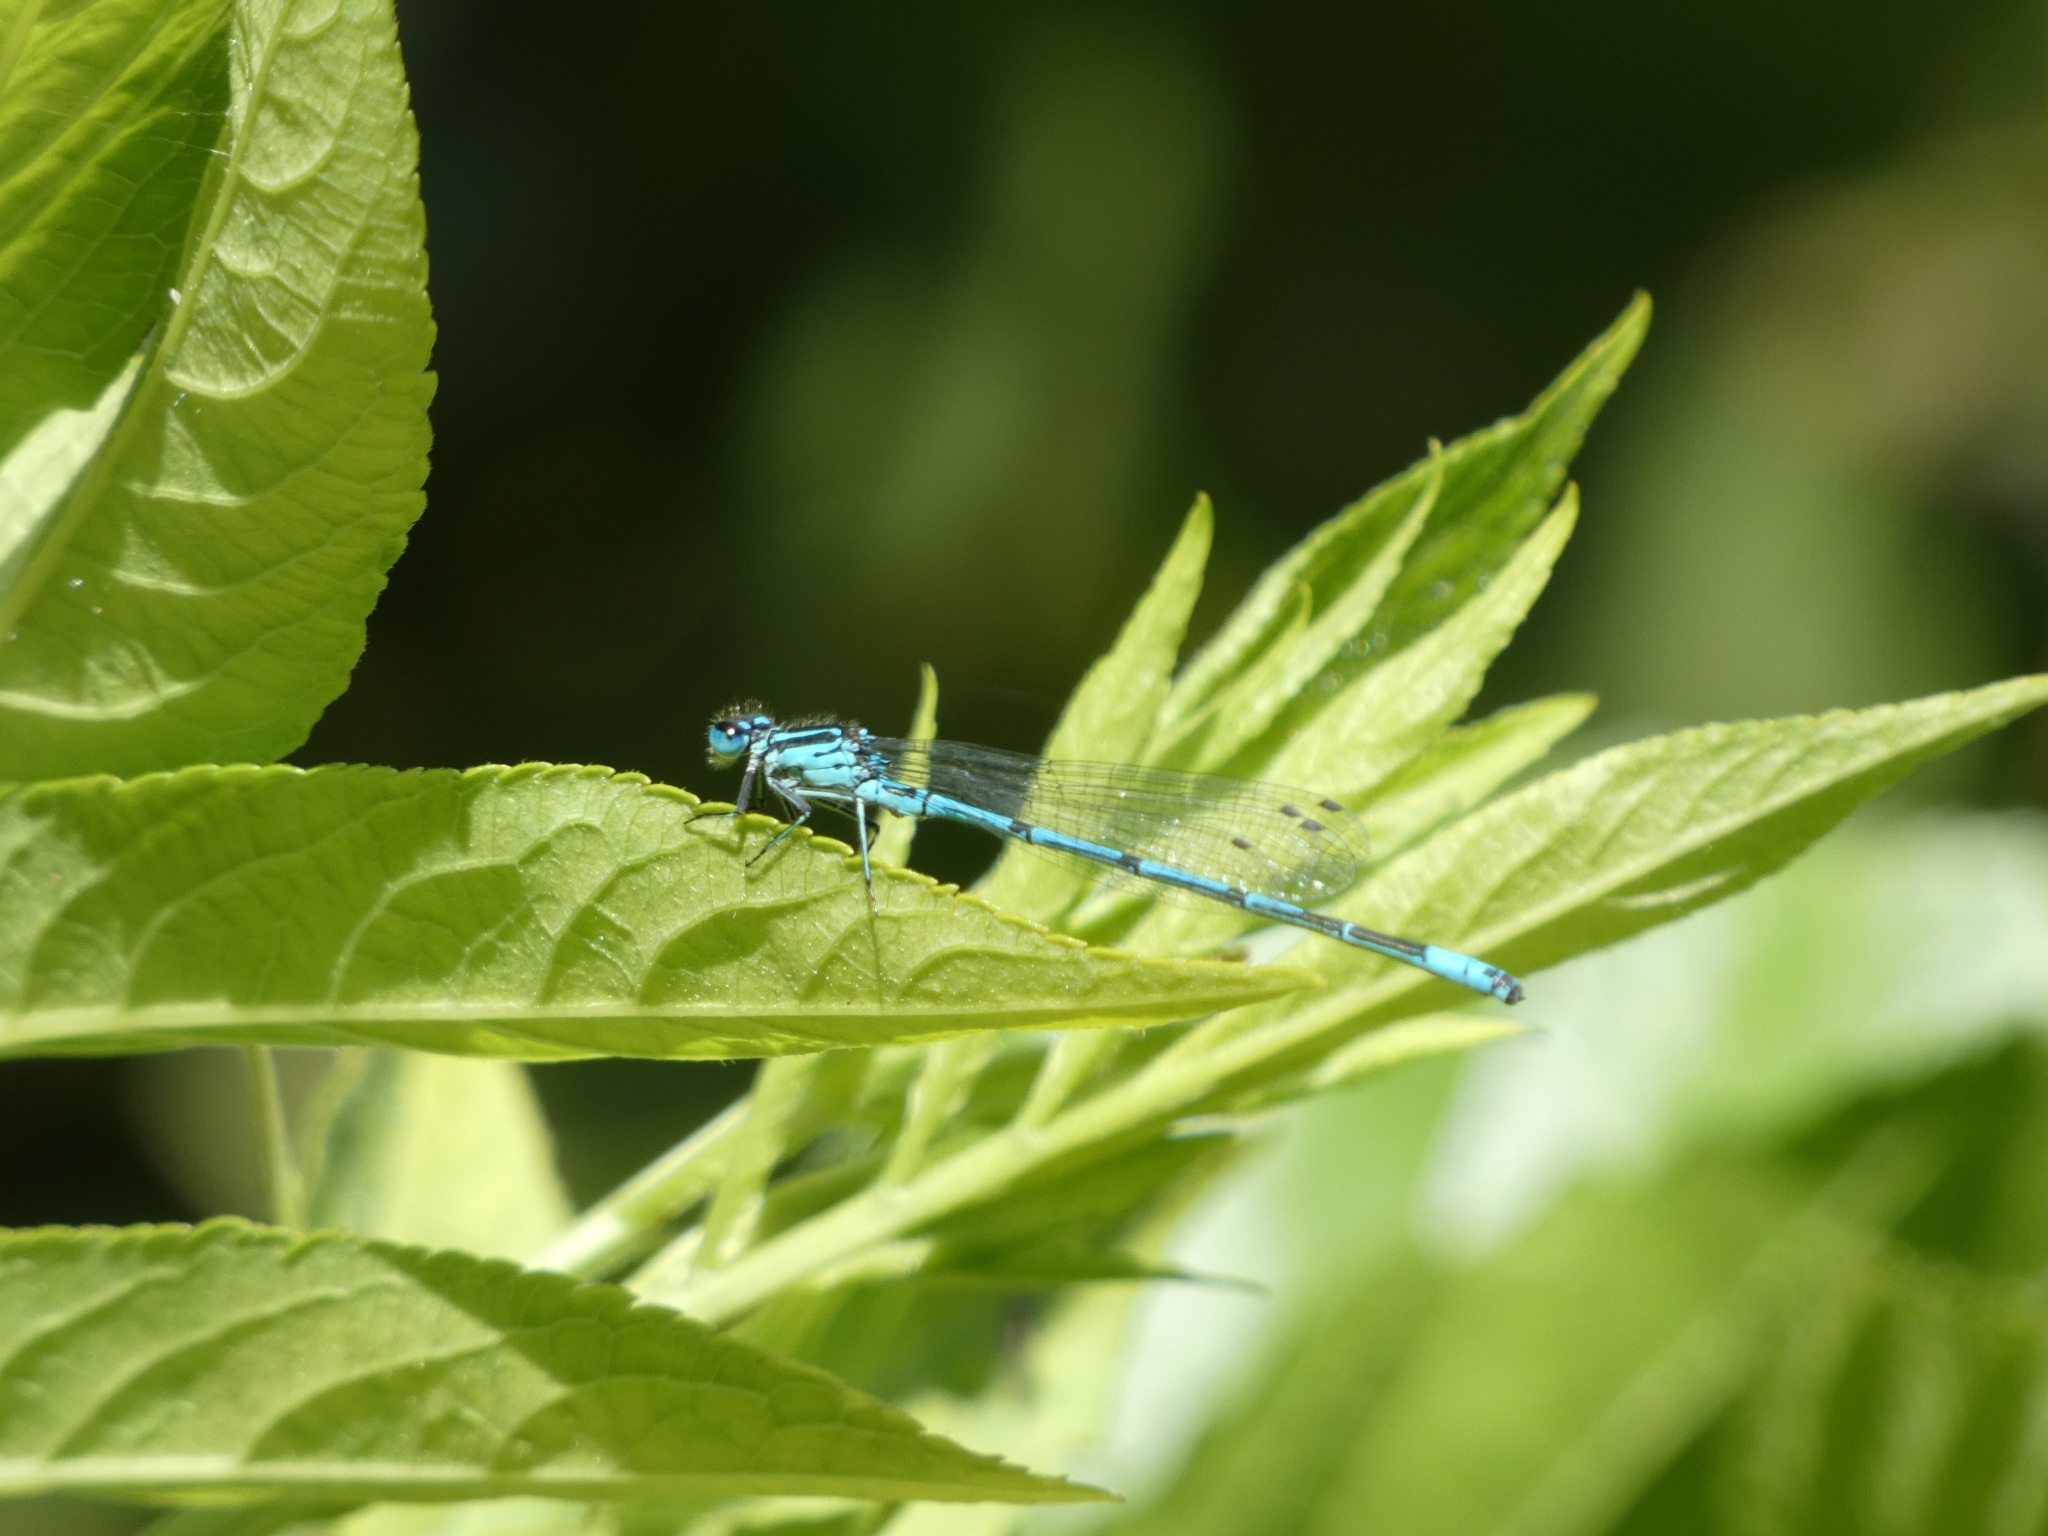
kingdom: Animalia
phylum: Arthropoda
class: Insecta
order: Odonata
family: Coenagrionidae
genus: Coenagrion
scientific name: Coenagrion puella
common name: Azure damselfly
